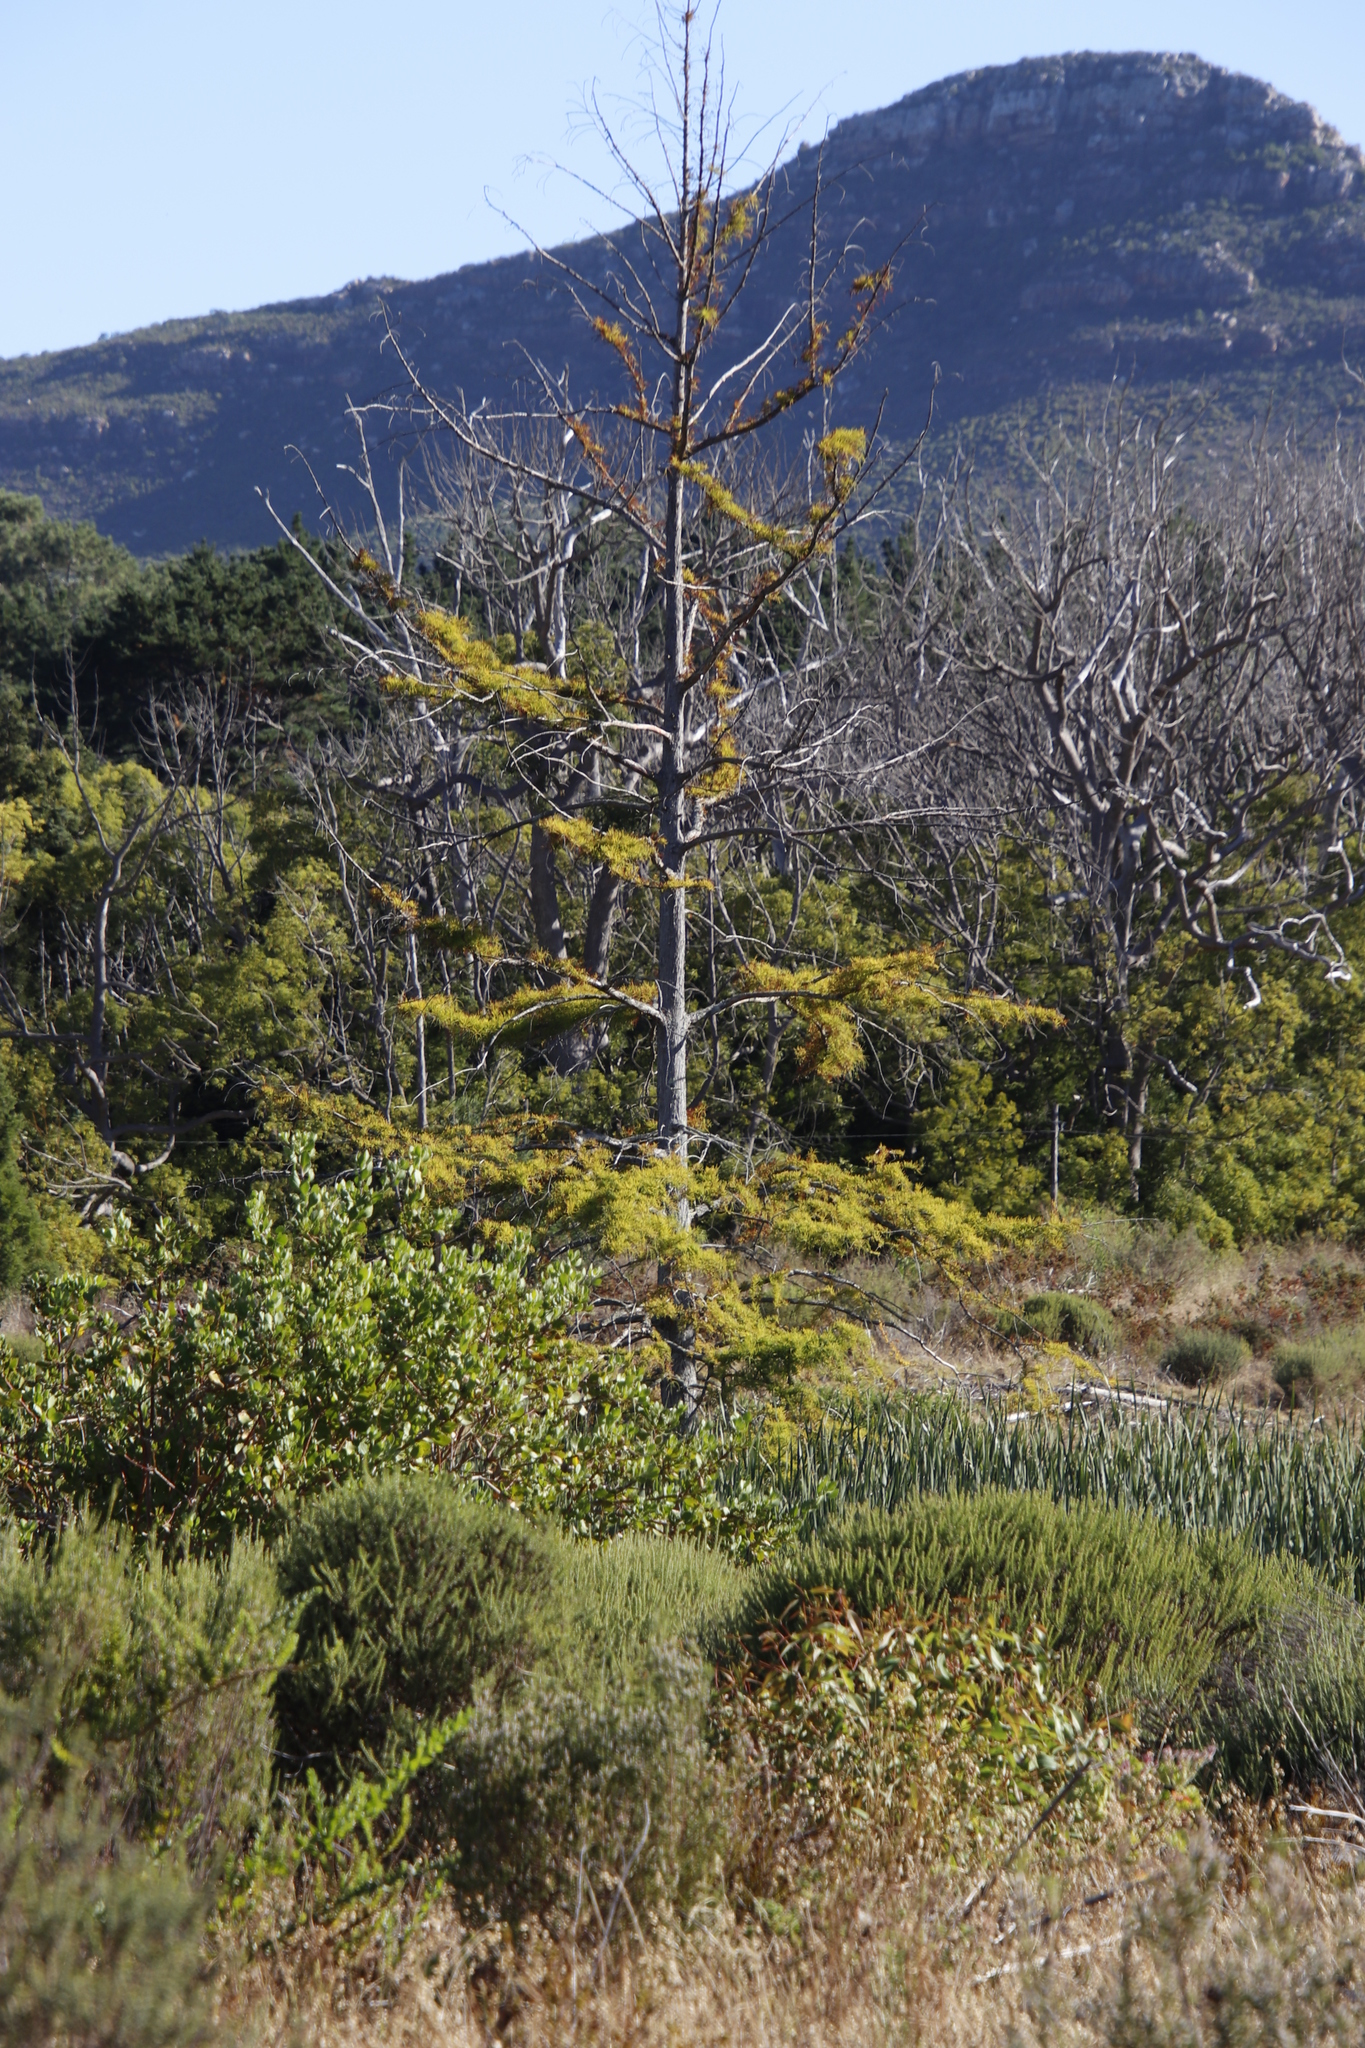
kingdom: Plantae
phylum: Tracheophyta
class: Pinopsida
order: Pinales
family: Cupressaceae
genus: Taxodium
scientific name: Taxodium distichum
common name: Bald cypress
